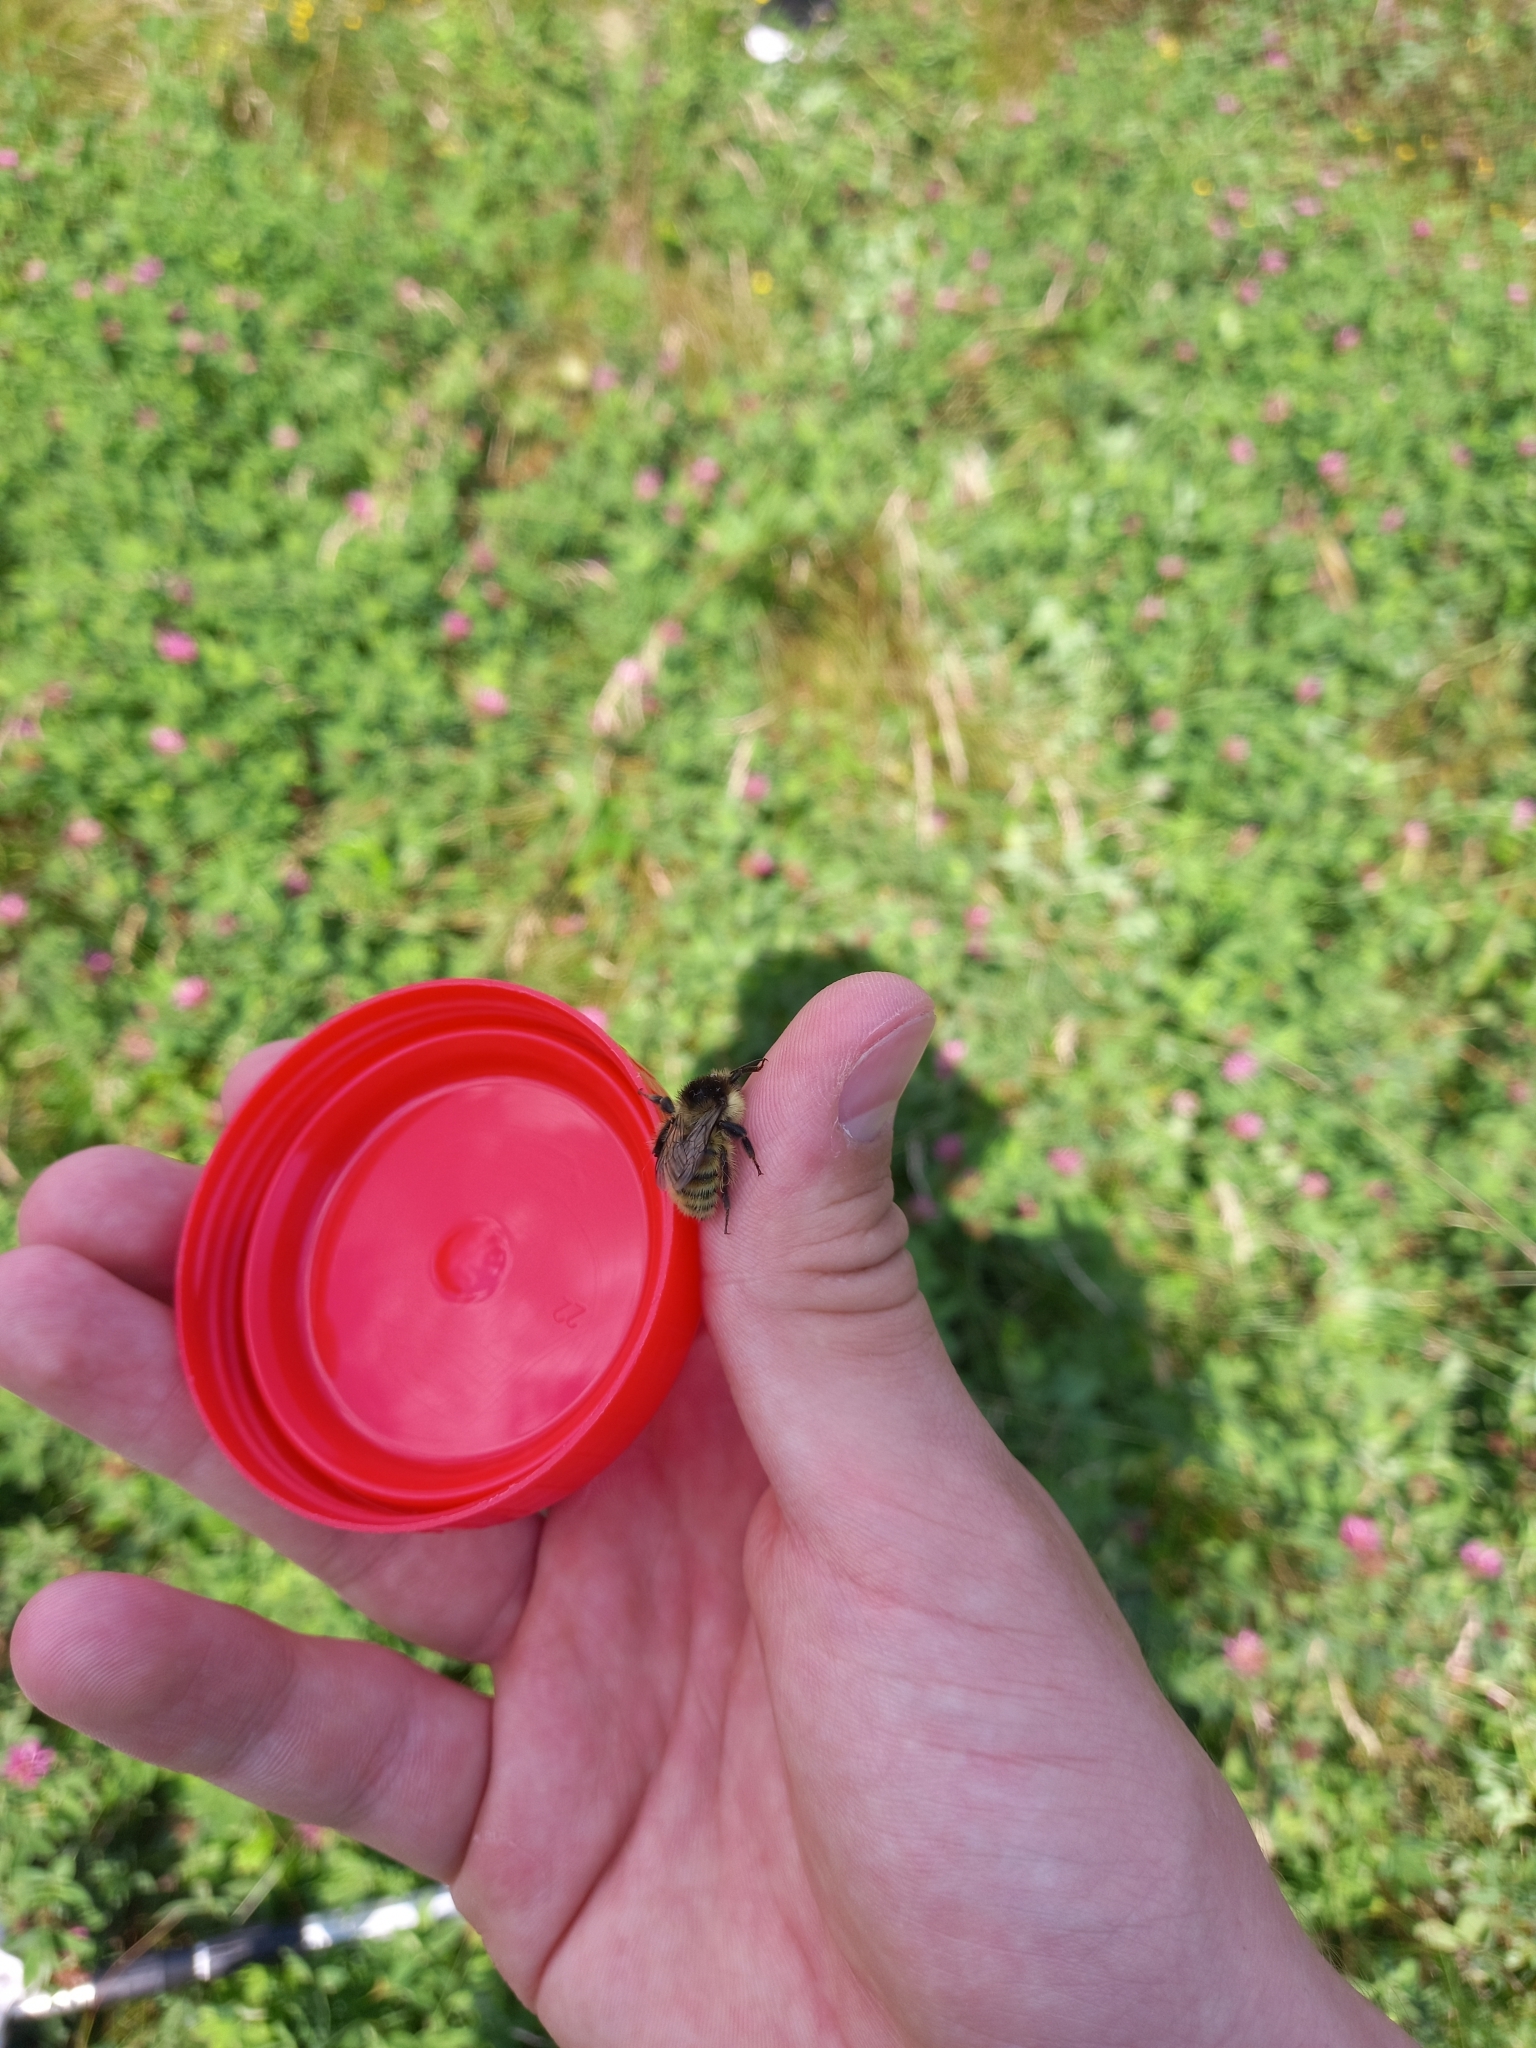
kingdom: Animalia
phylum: Arthropoda
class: Insecta
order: Hymenoptera
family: Apidae
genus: Bombus
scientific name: Bombus humilis
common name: Brown-banded carder-bee
